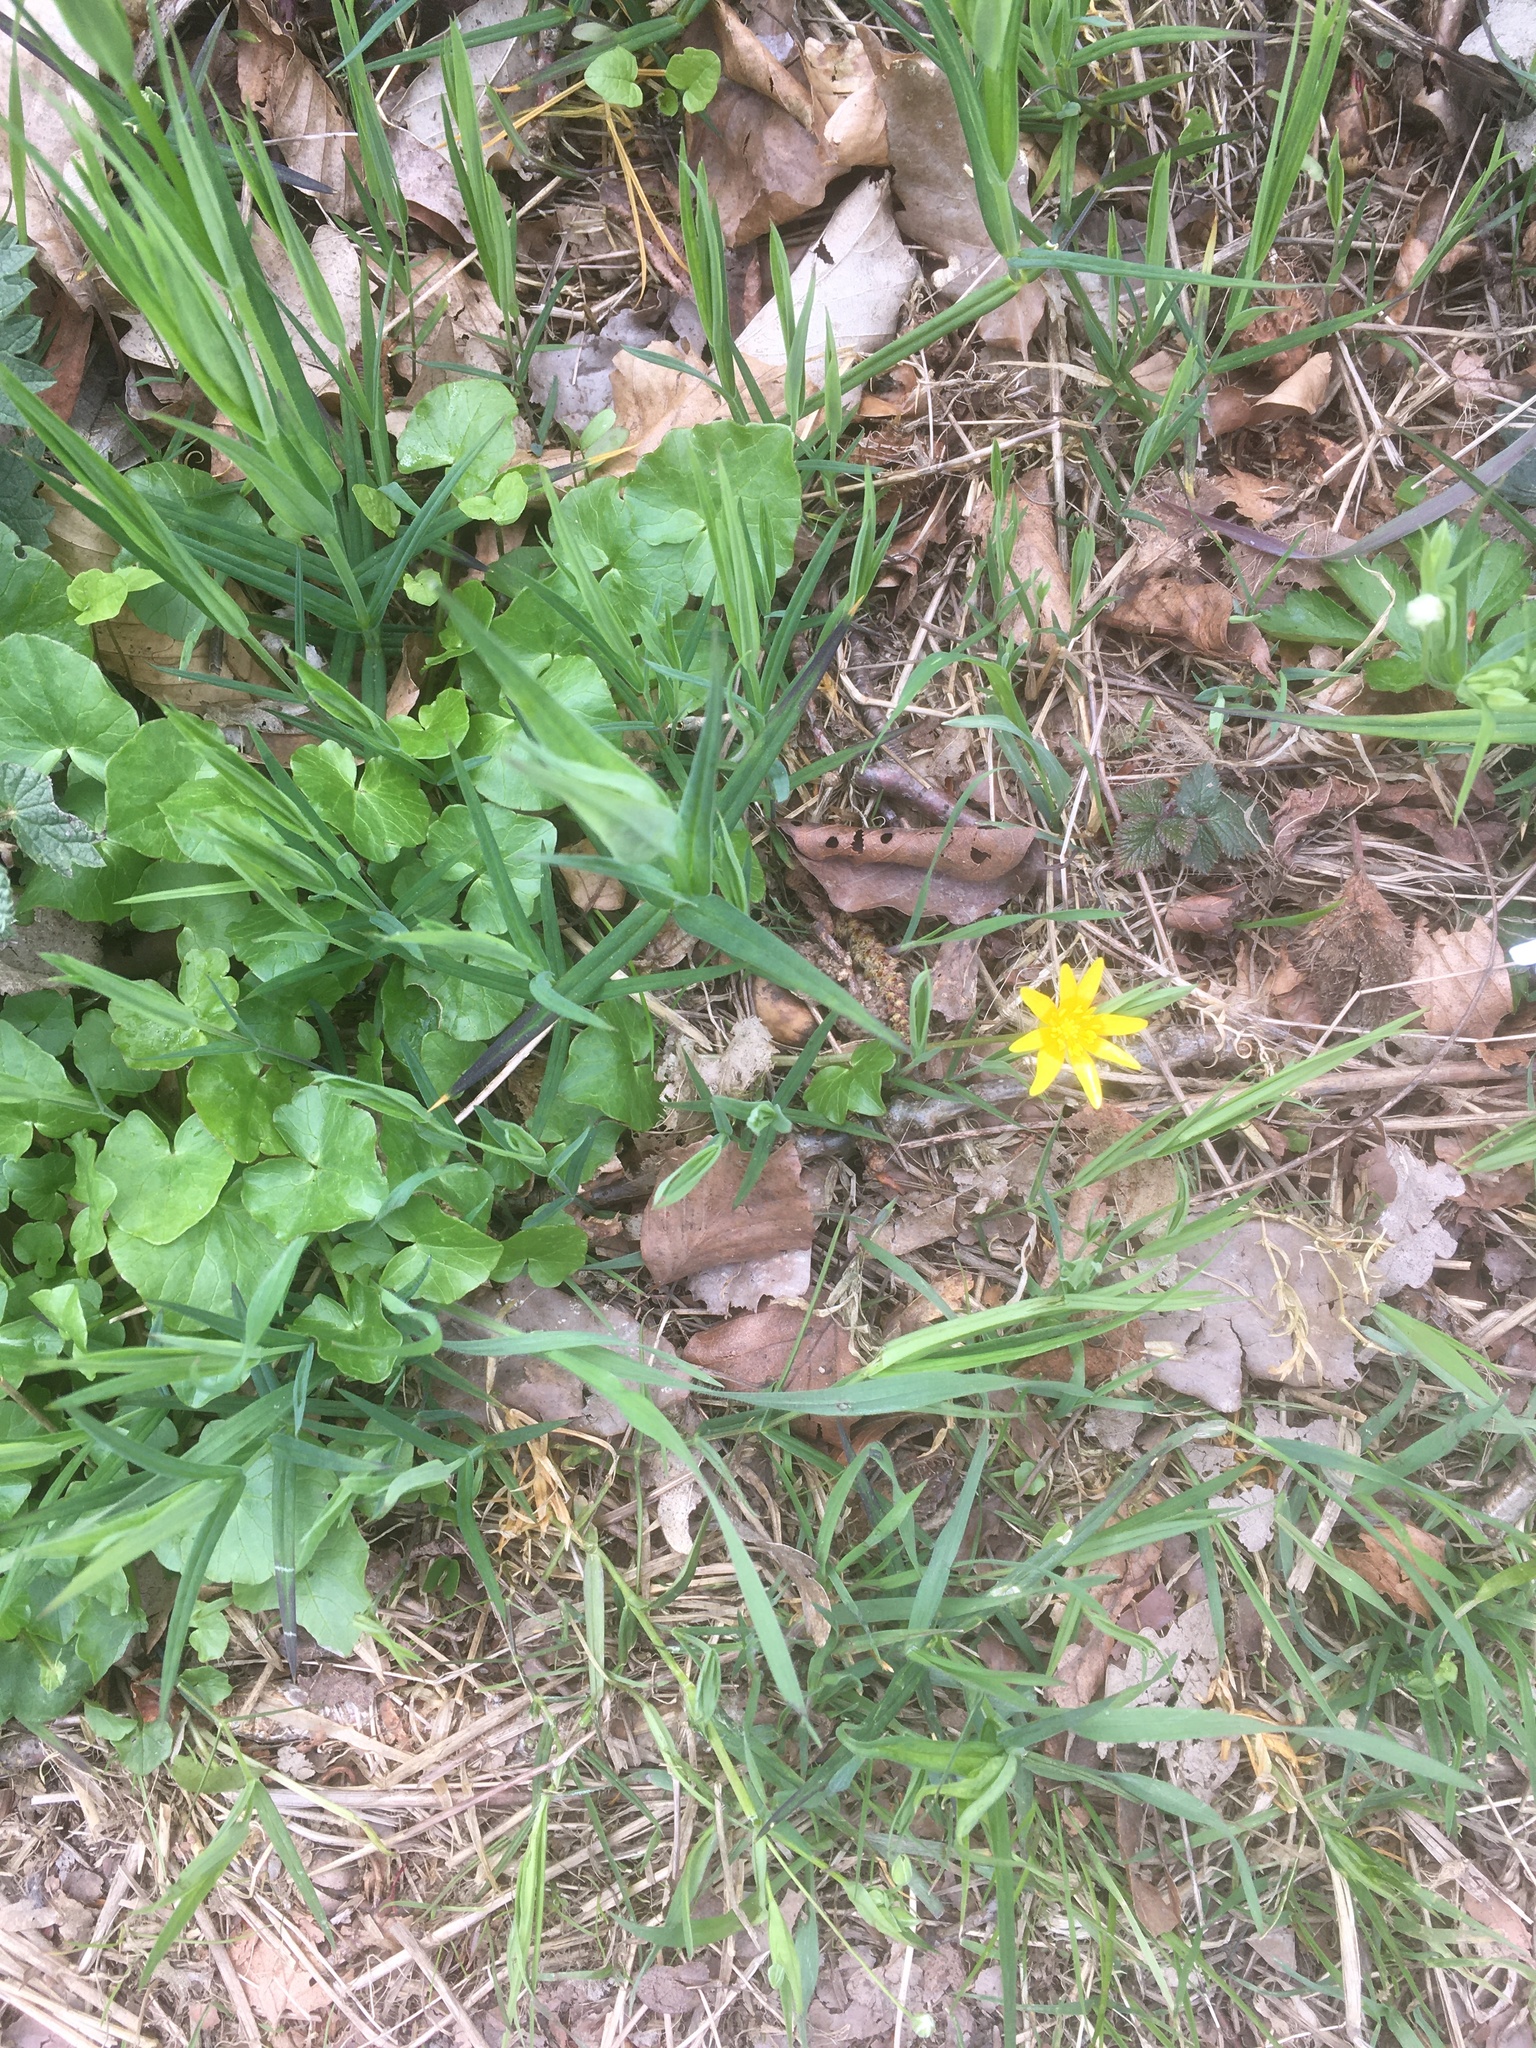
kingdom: Plantae
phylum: Tracheophyta
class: Magnoliopsida
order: Ranunculales
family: Ranunculaceae
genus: Ficaria
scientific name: Ficaria verna
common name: Lesser celandine
